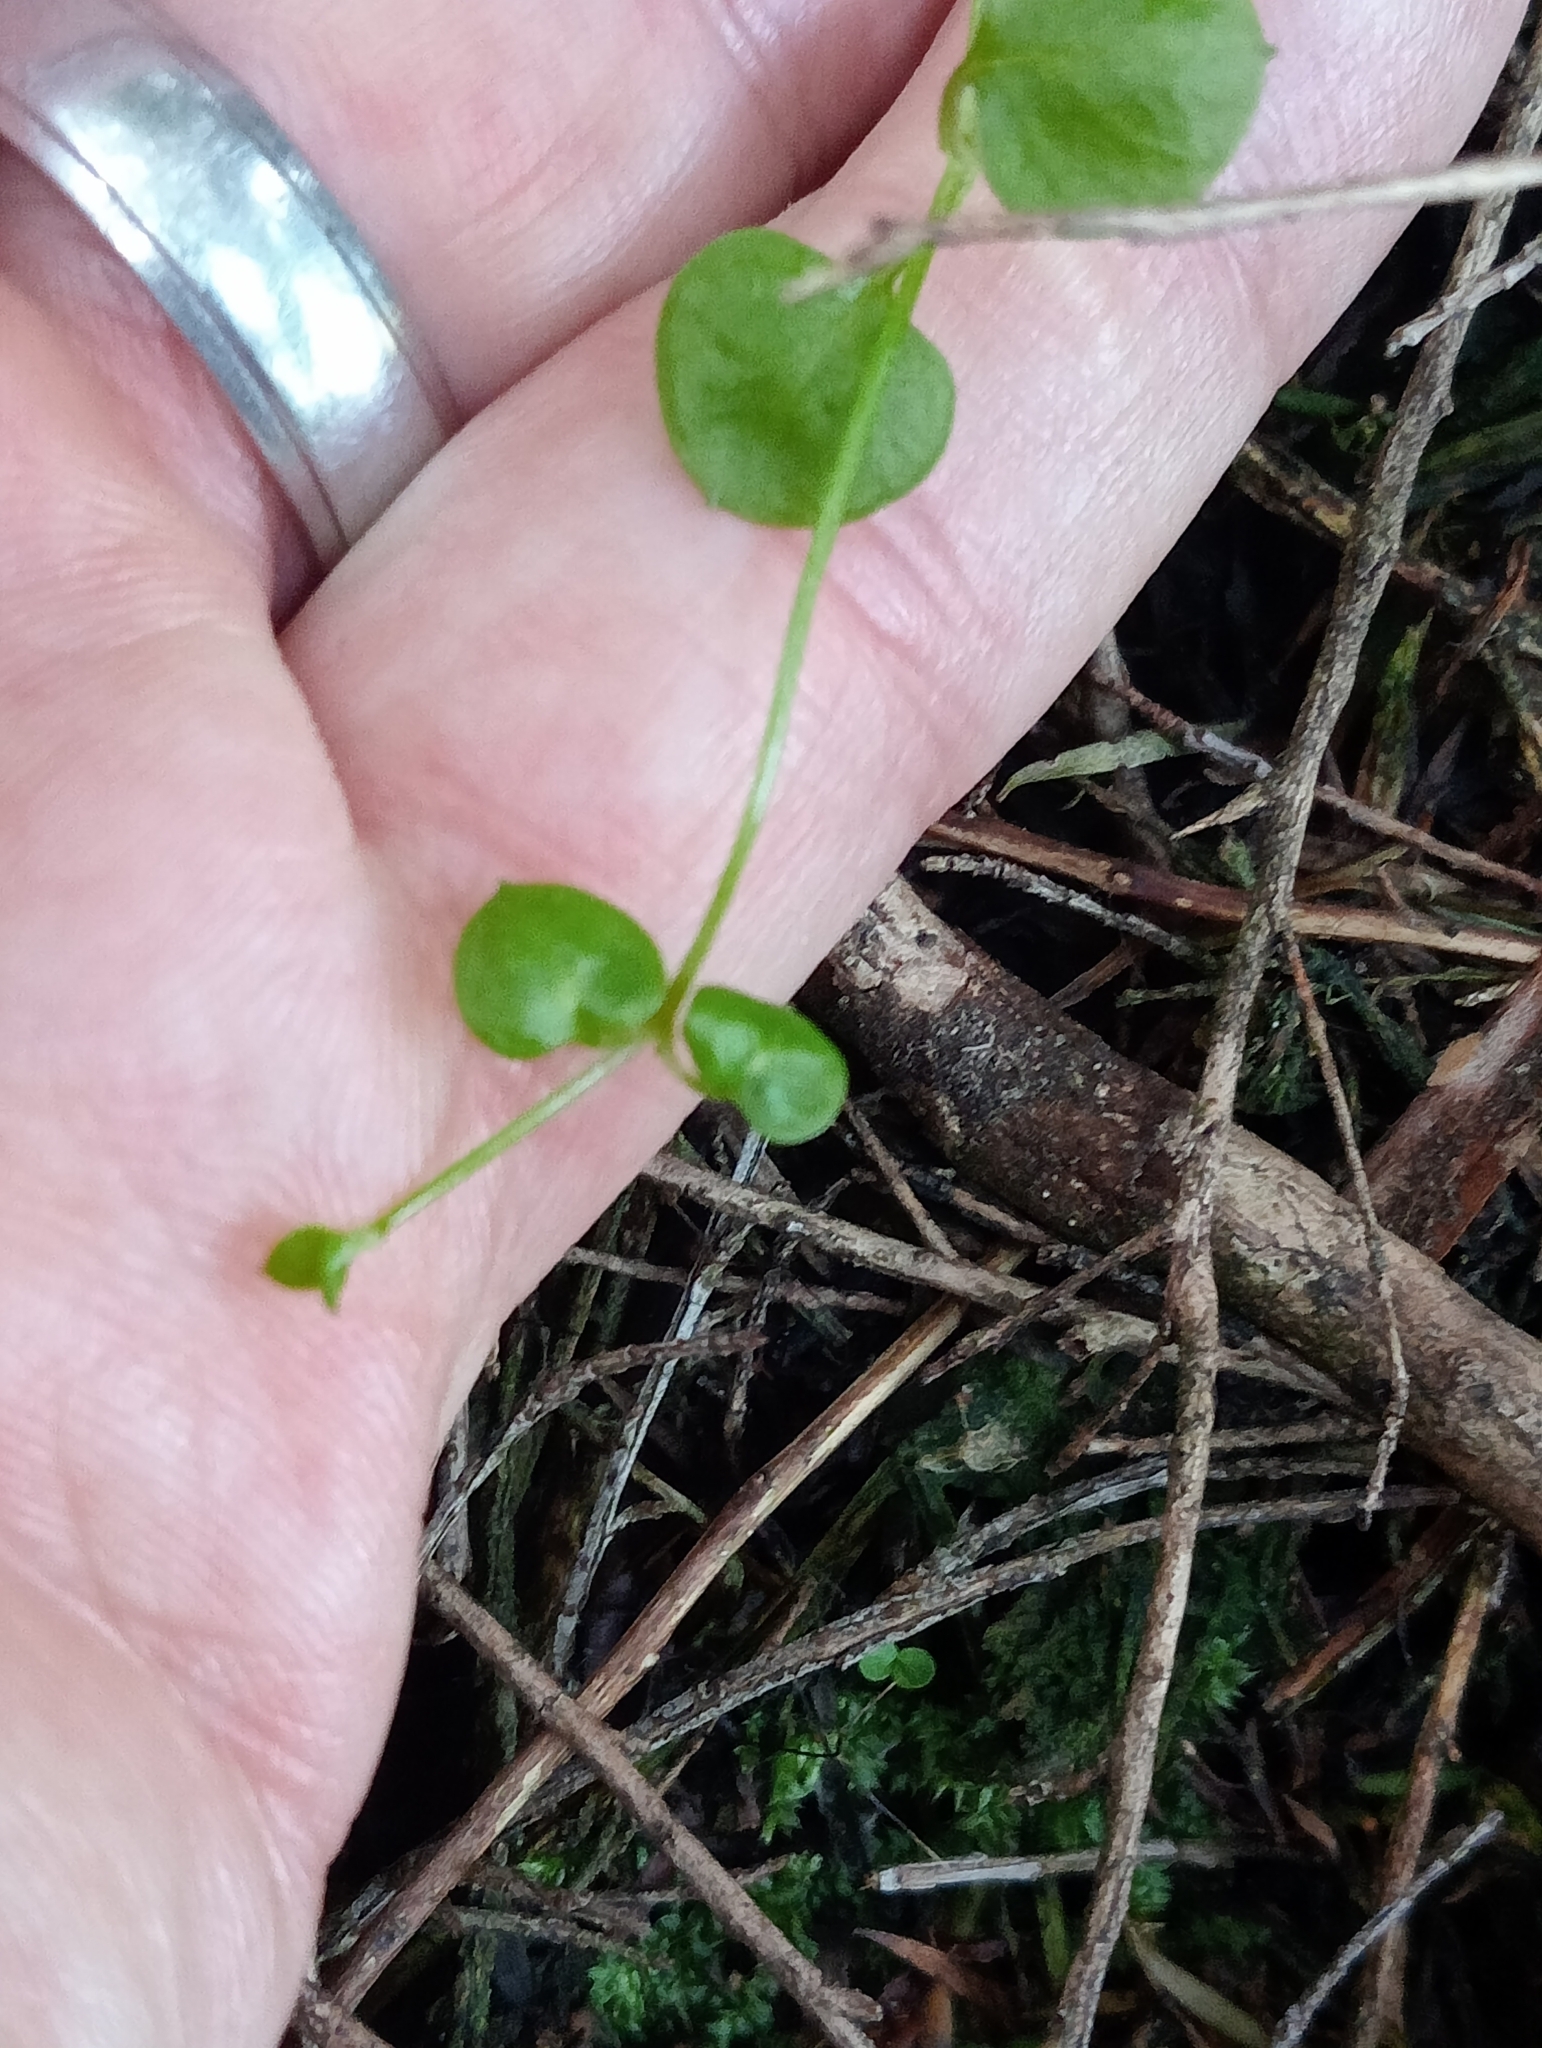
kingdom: Plantae
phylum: Tracheophyta
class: Magnoliopsida
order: Caryophyllales
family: Caryophyllaceae
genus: Stellaria
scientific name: Stellaria parviflora
